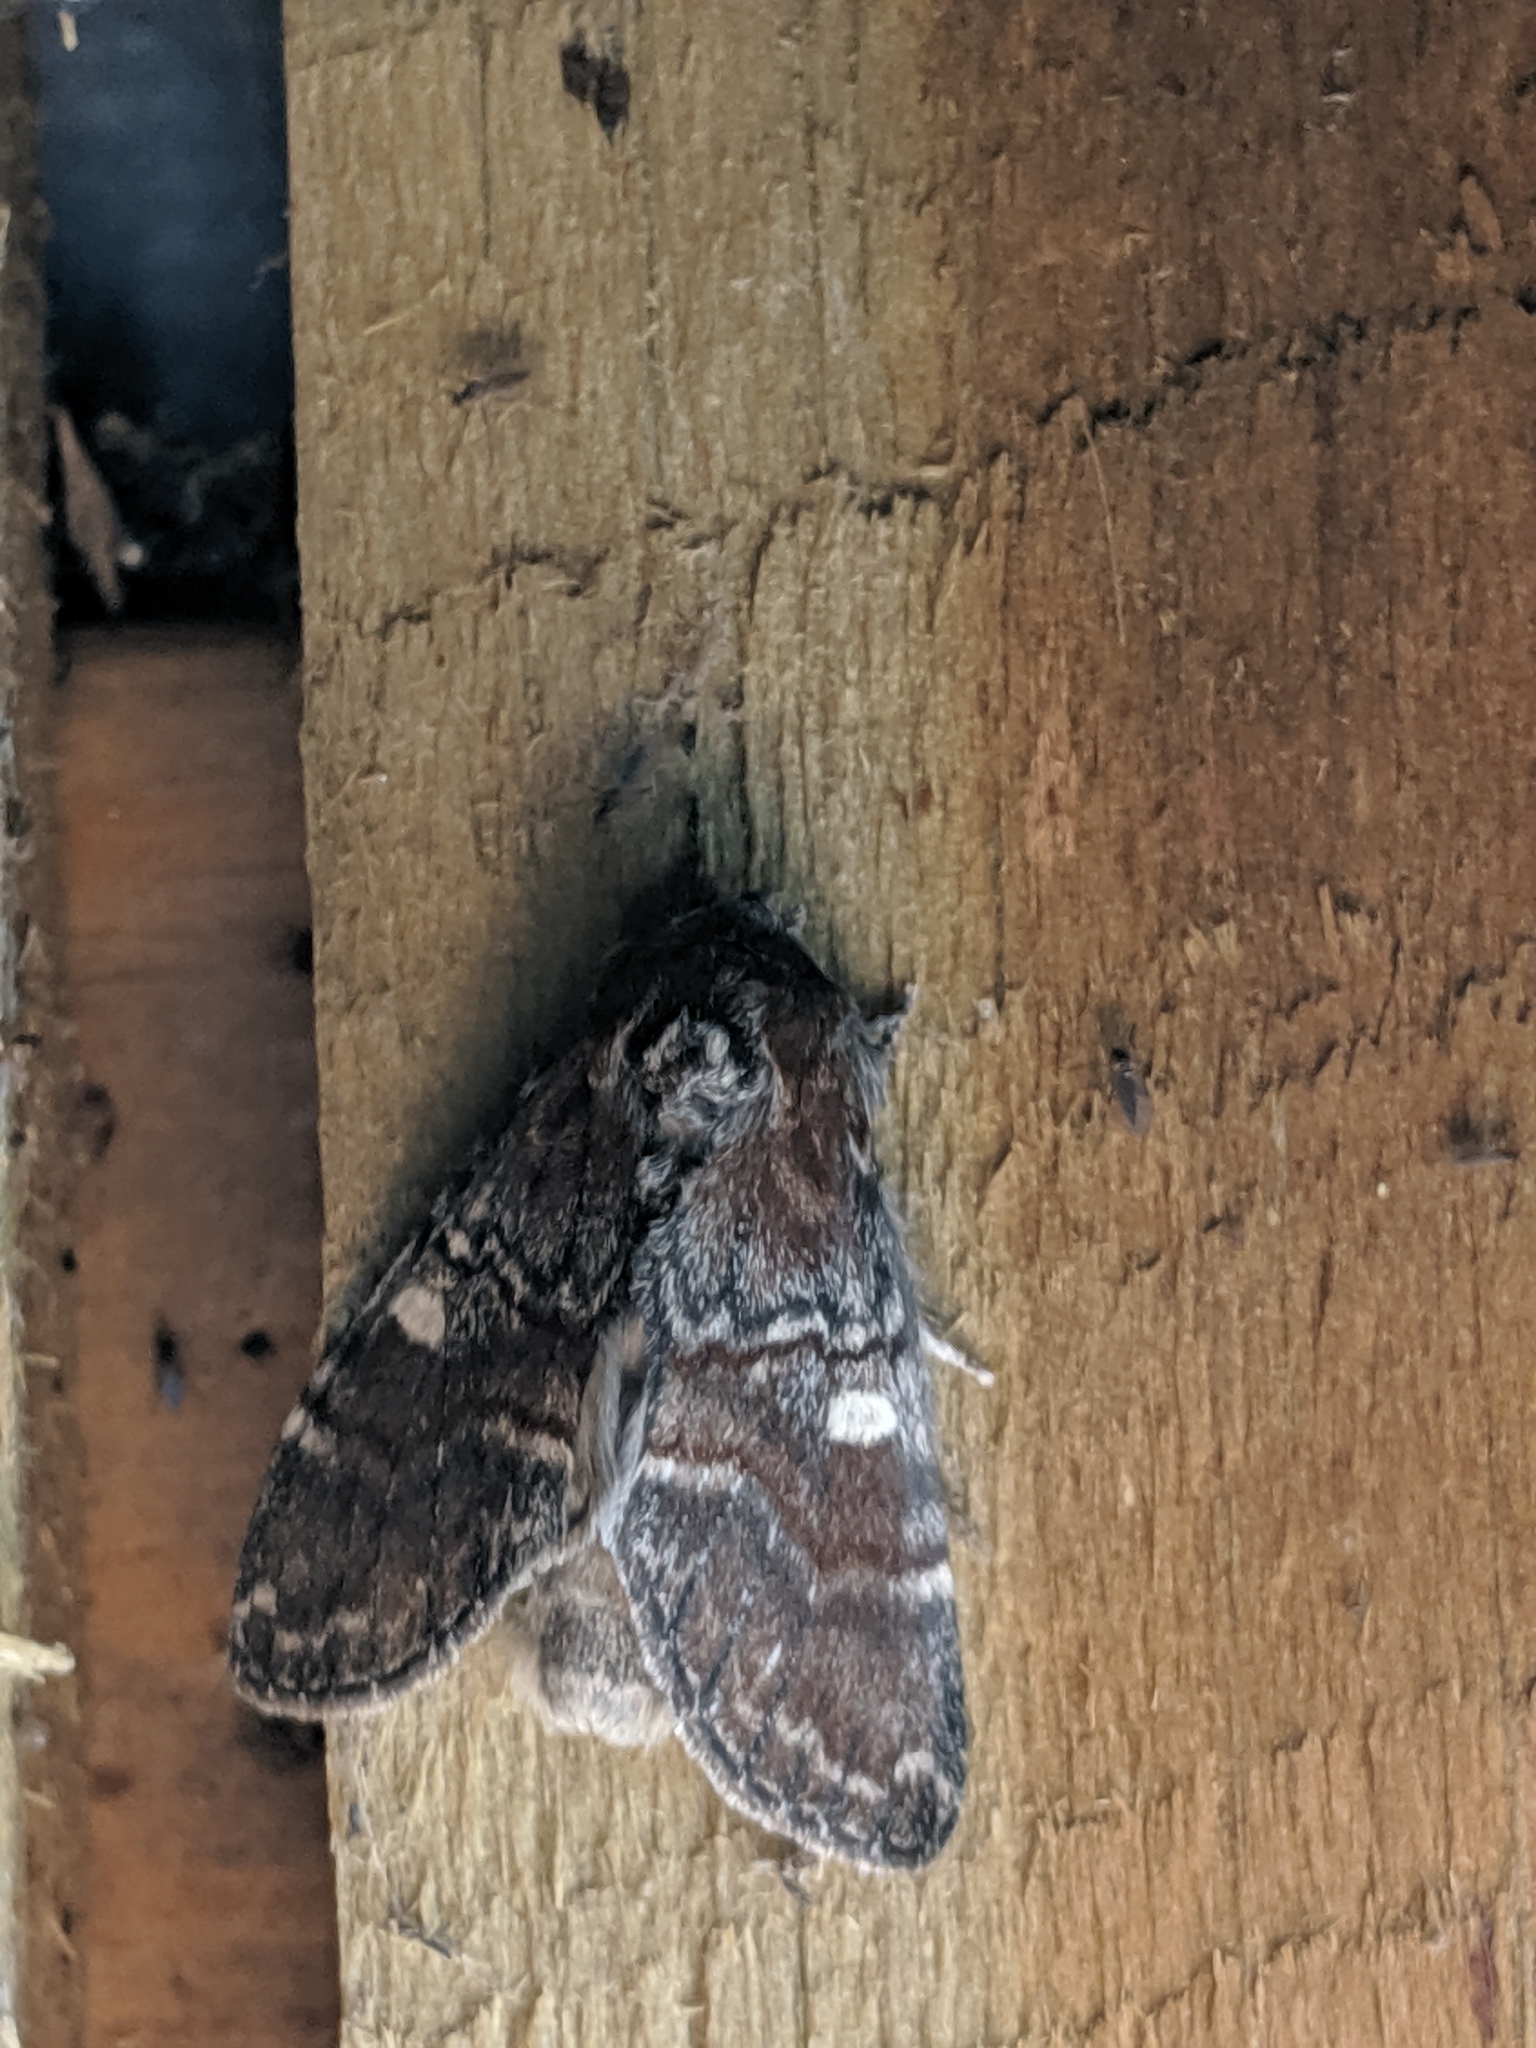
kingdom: Animalia
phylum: Arthropoda
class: Insecta
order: Lepidoptera
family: Notodontidae
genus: Peridea
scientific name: Peridea ferruginea
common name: Chocolate prominent
